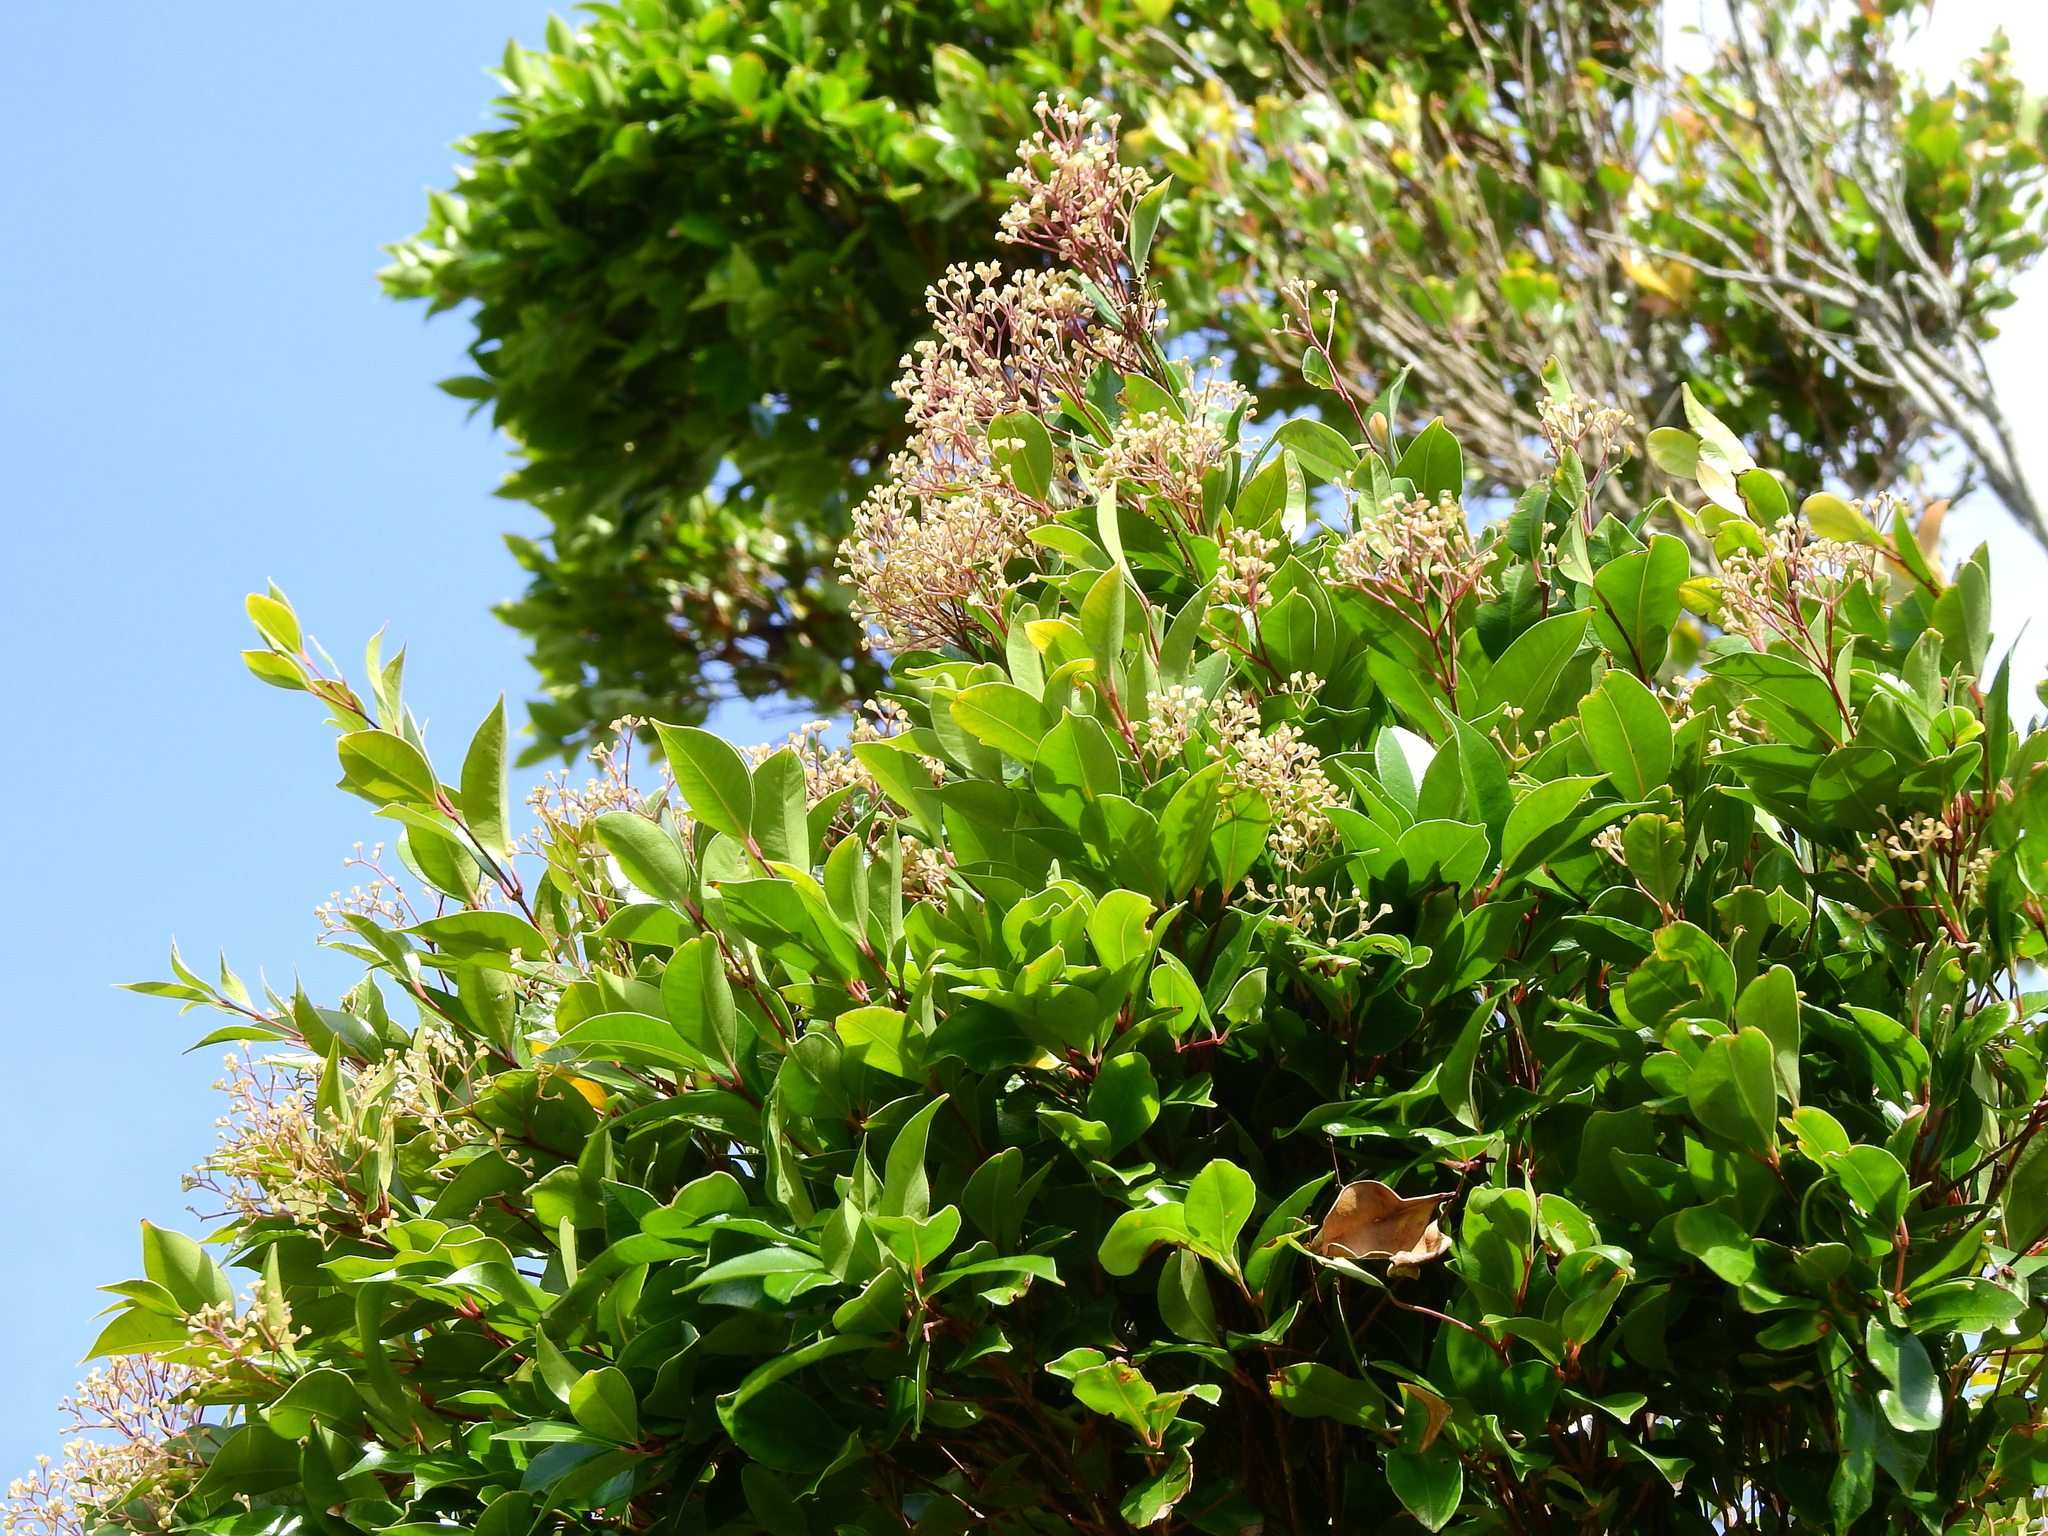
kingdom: Plantae
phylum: Tracheophyta
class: Magnoliopsida
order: Myrtales
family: Myrtaceae
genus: Syzygium
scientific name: Syzygium smithii
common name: Lilly-pilly
